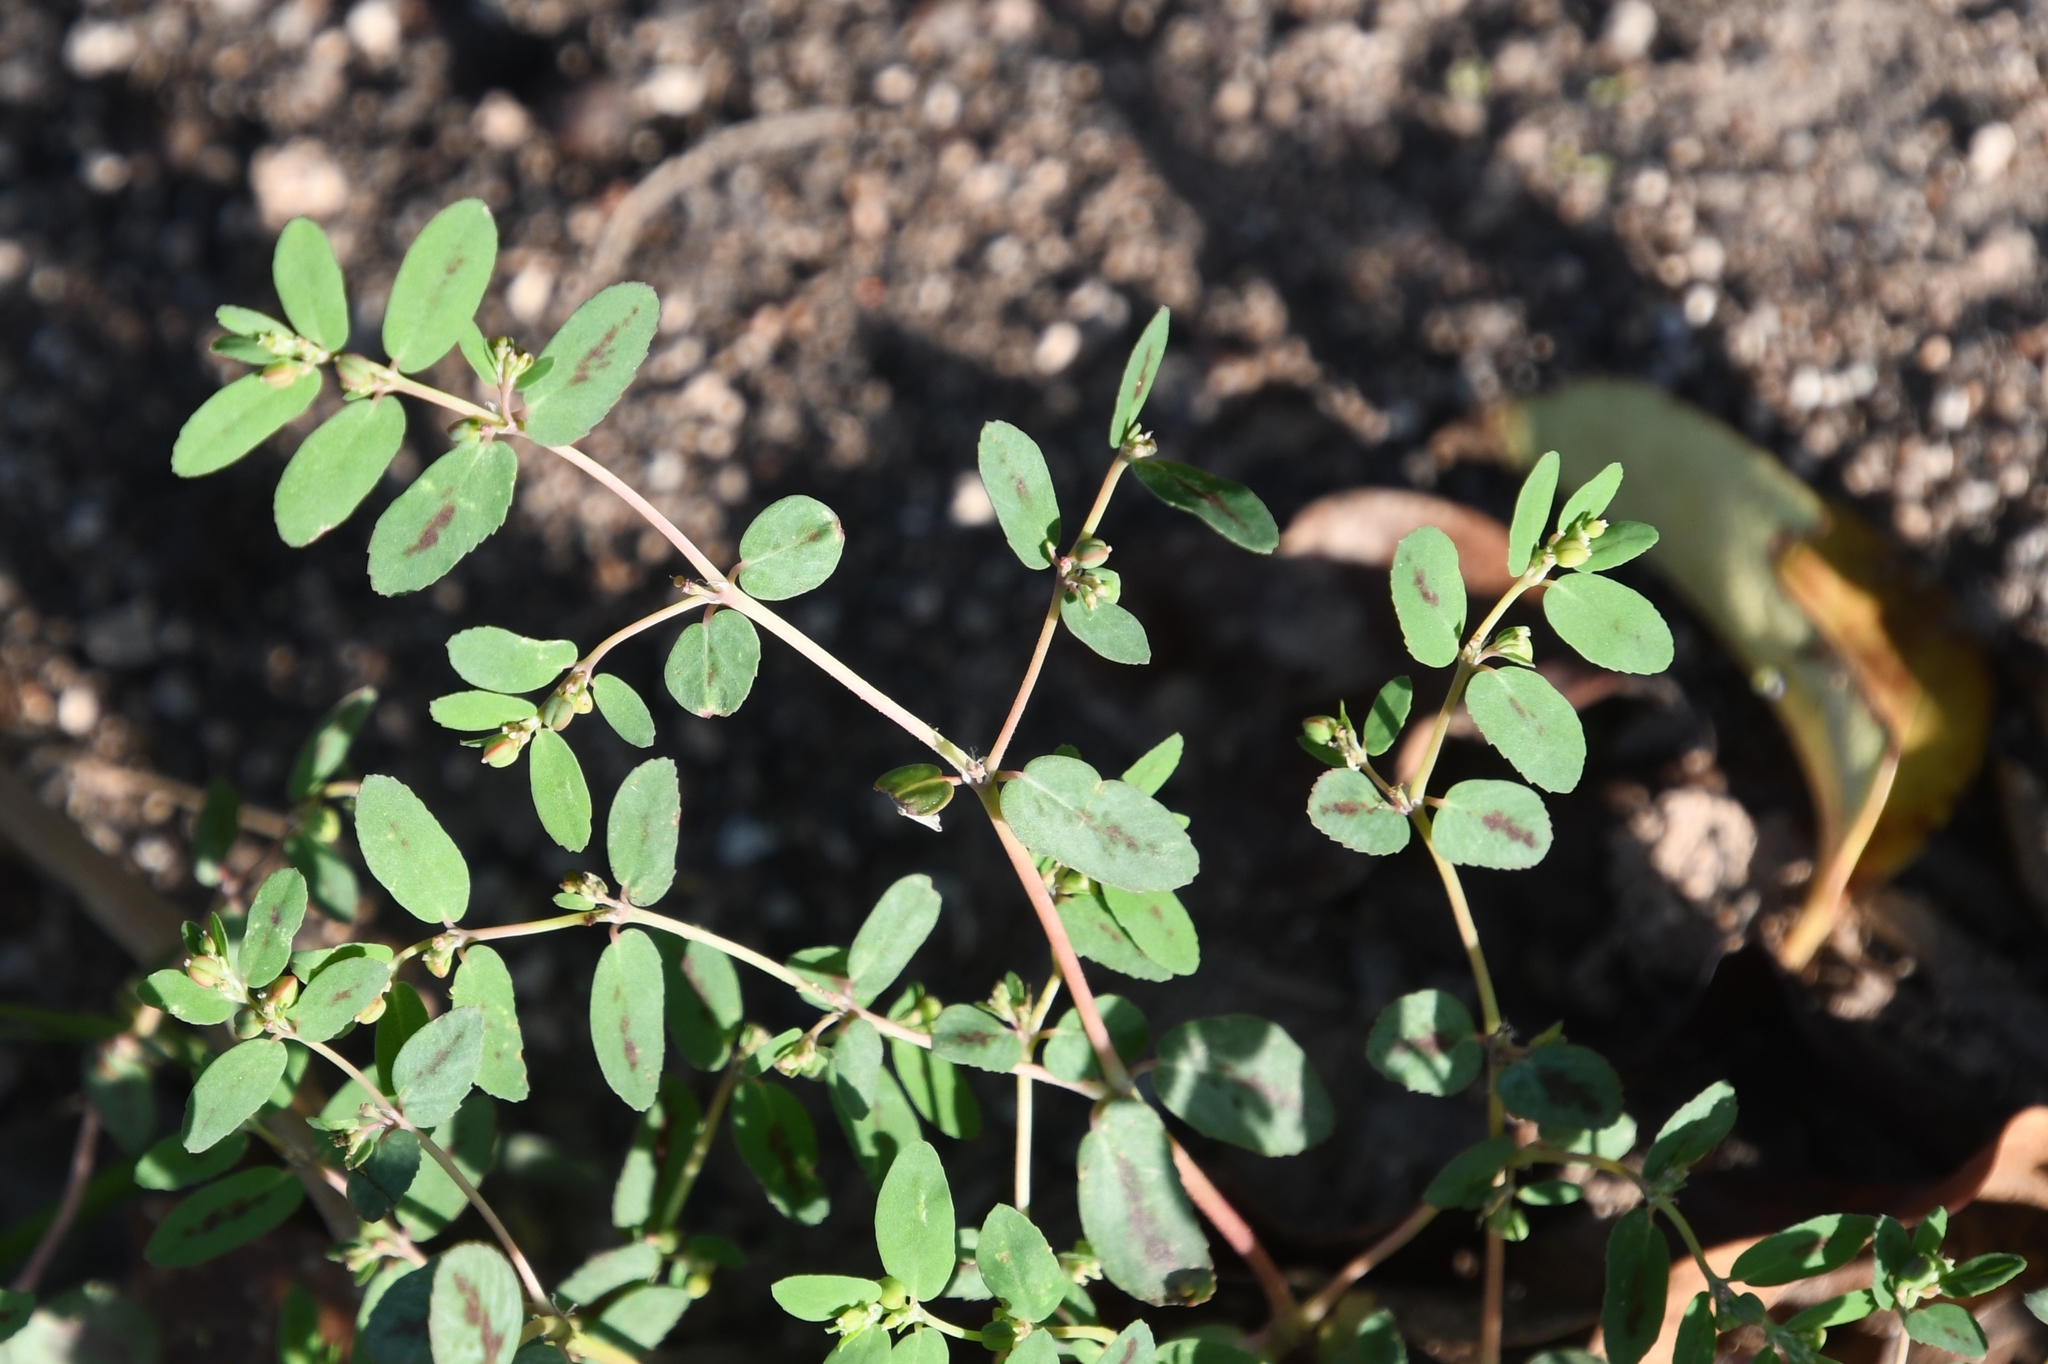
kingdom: Plantae
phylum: Tracheophyta
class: Magnoliopsida
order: Malpighiales
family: Euphorbiaceae
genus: Euphorbia
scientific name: Euphorbia abramsiana
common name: Abram's spurge
